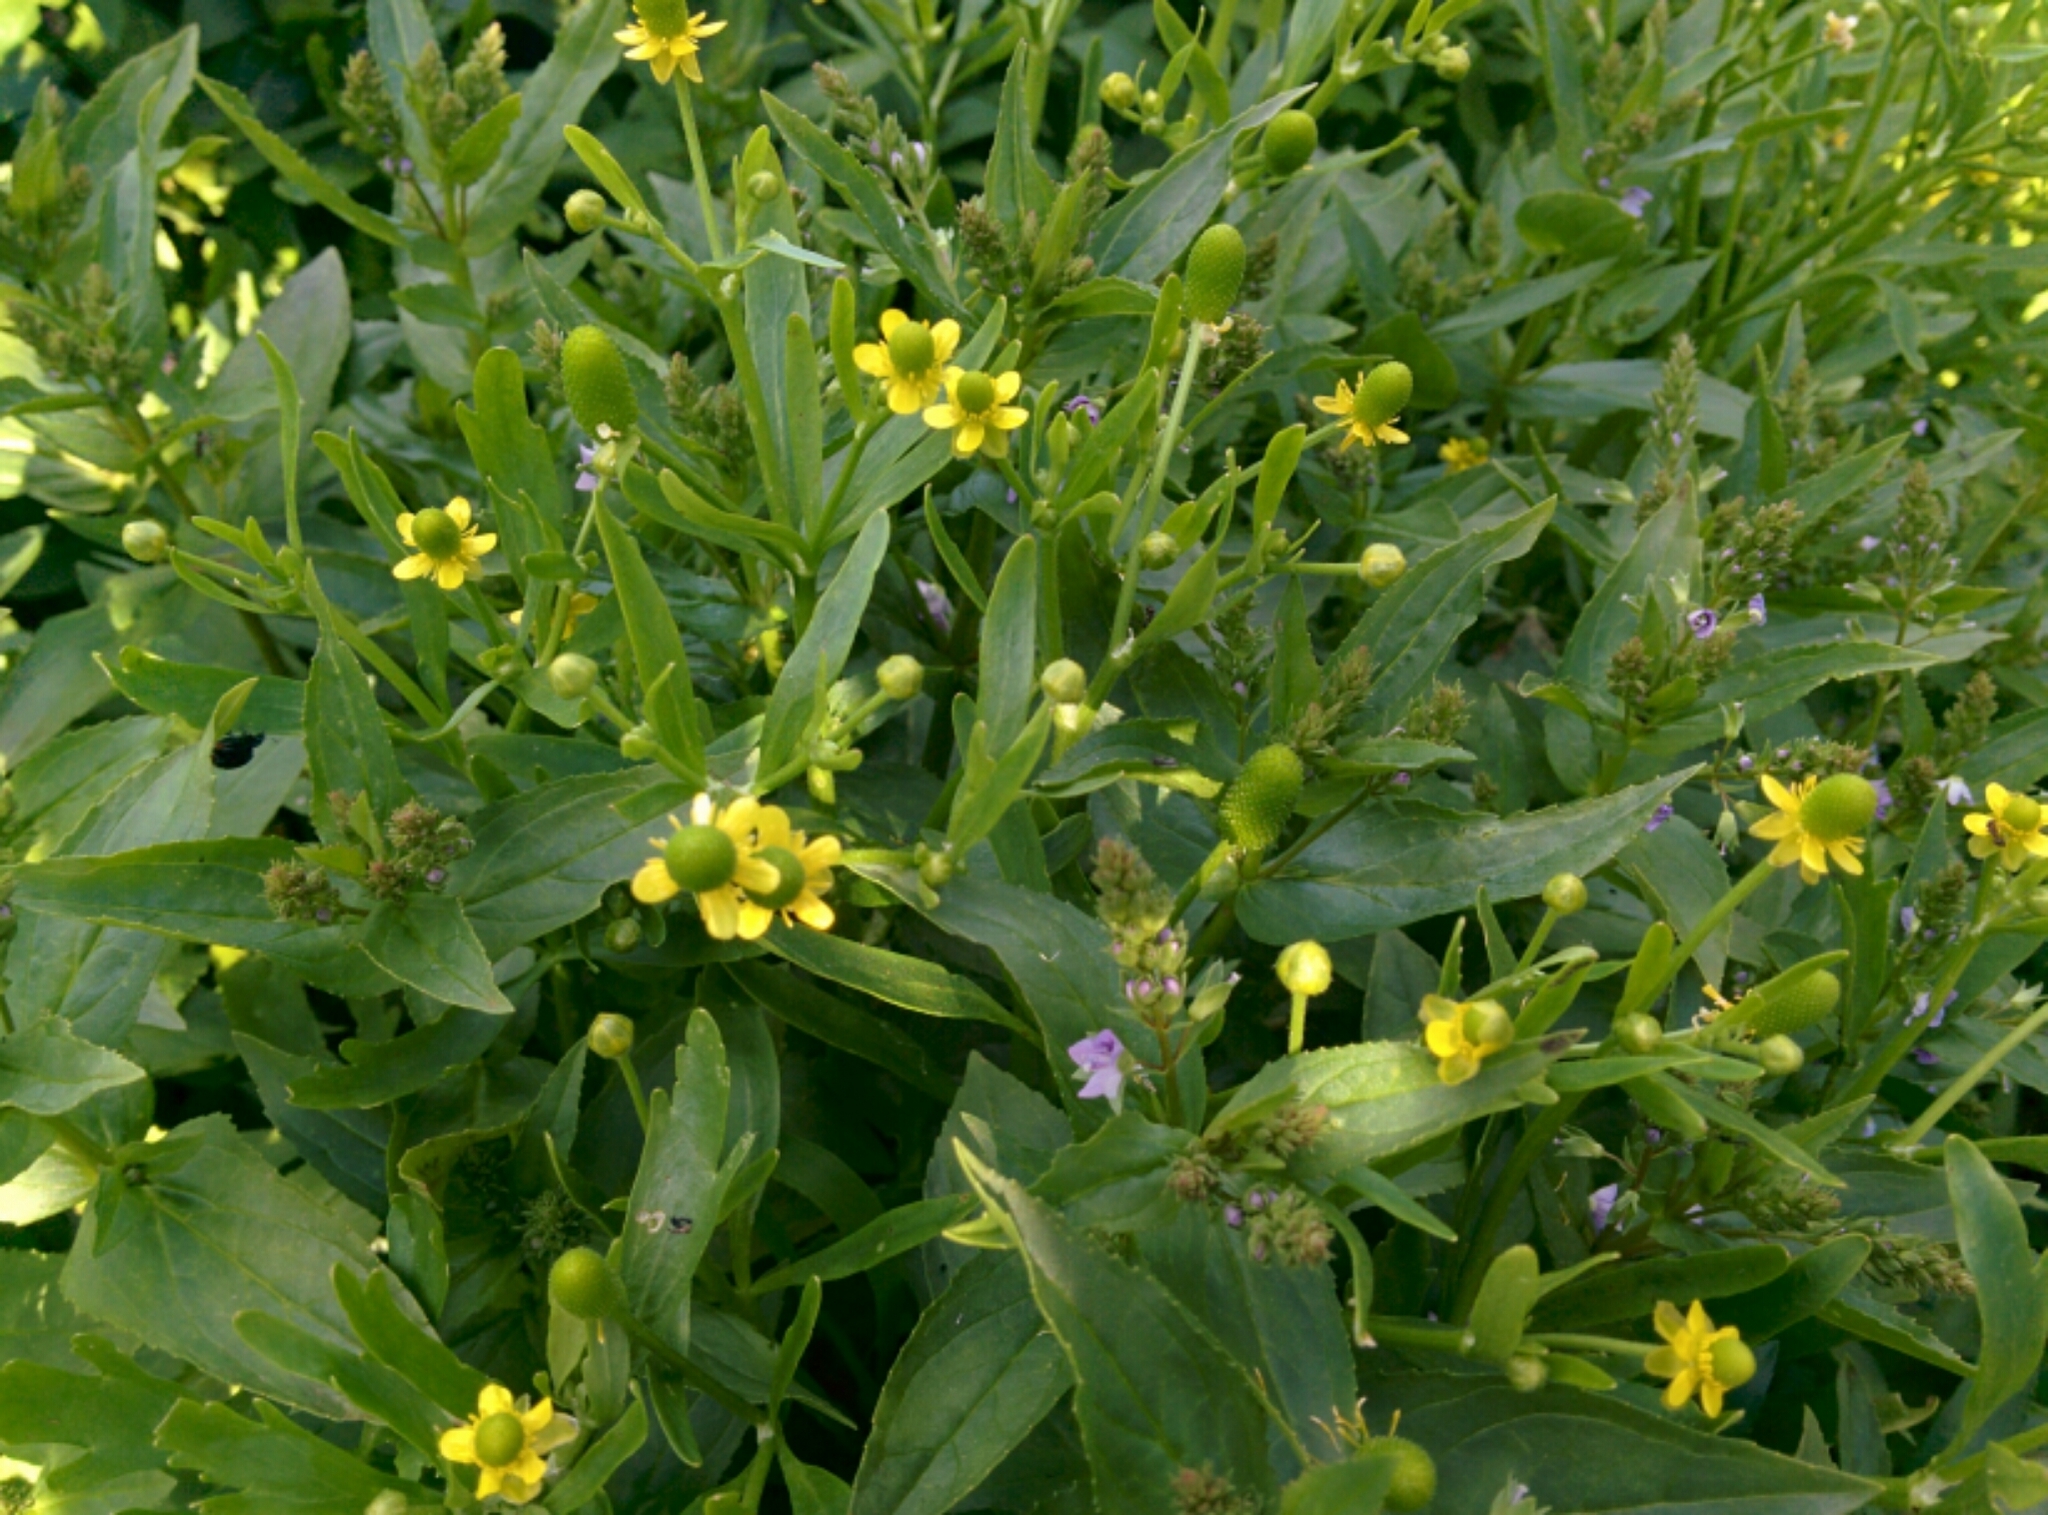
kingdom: Plantae
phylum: Tracheophyta
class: Magnoliopsida
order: Ranunculales
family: Ranunculaceae
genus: Ranunculus
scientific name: Ranunculus sceleratus
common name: Celery-leaved buttercup
